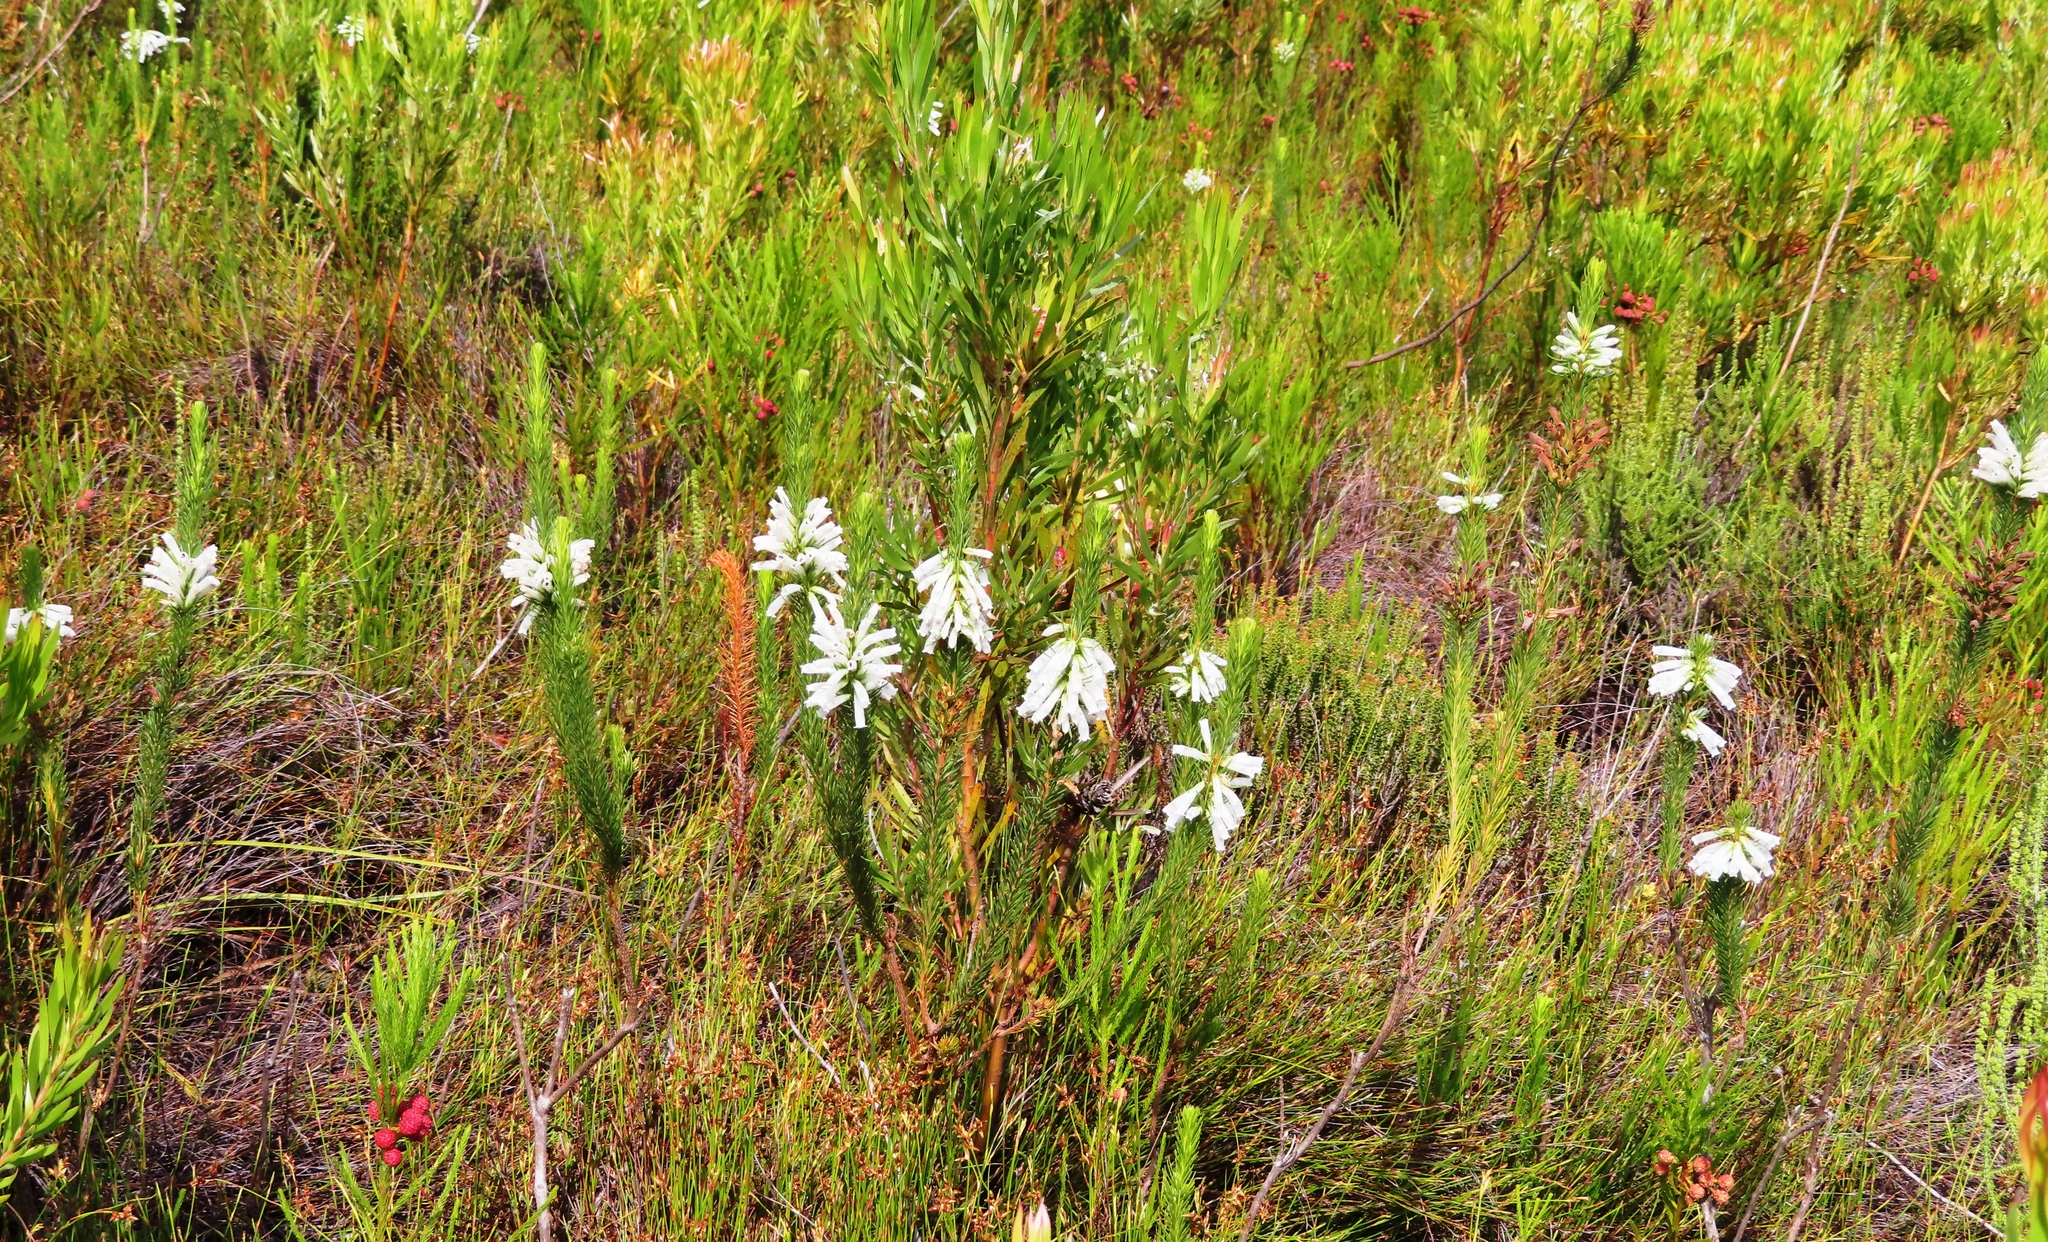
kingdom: Plantae
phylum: Tracheophyta
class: Magnoliopsida
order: Ericales
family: Ericaceae
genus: Erica
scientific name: Erica vestita
